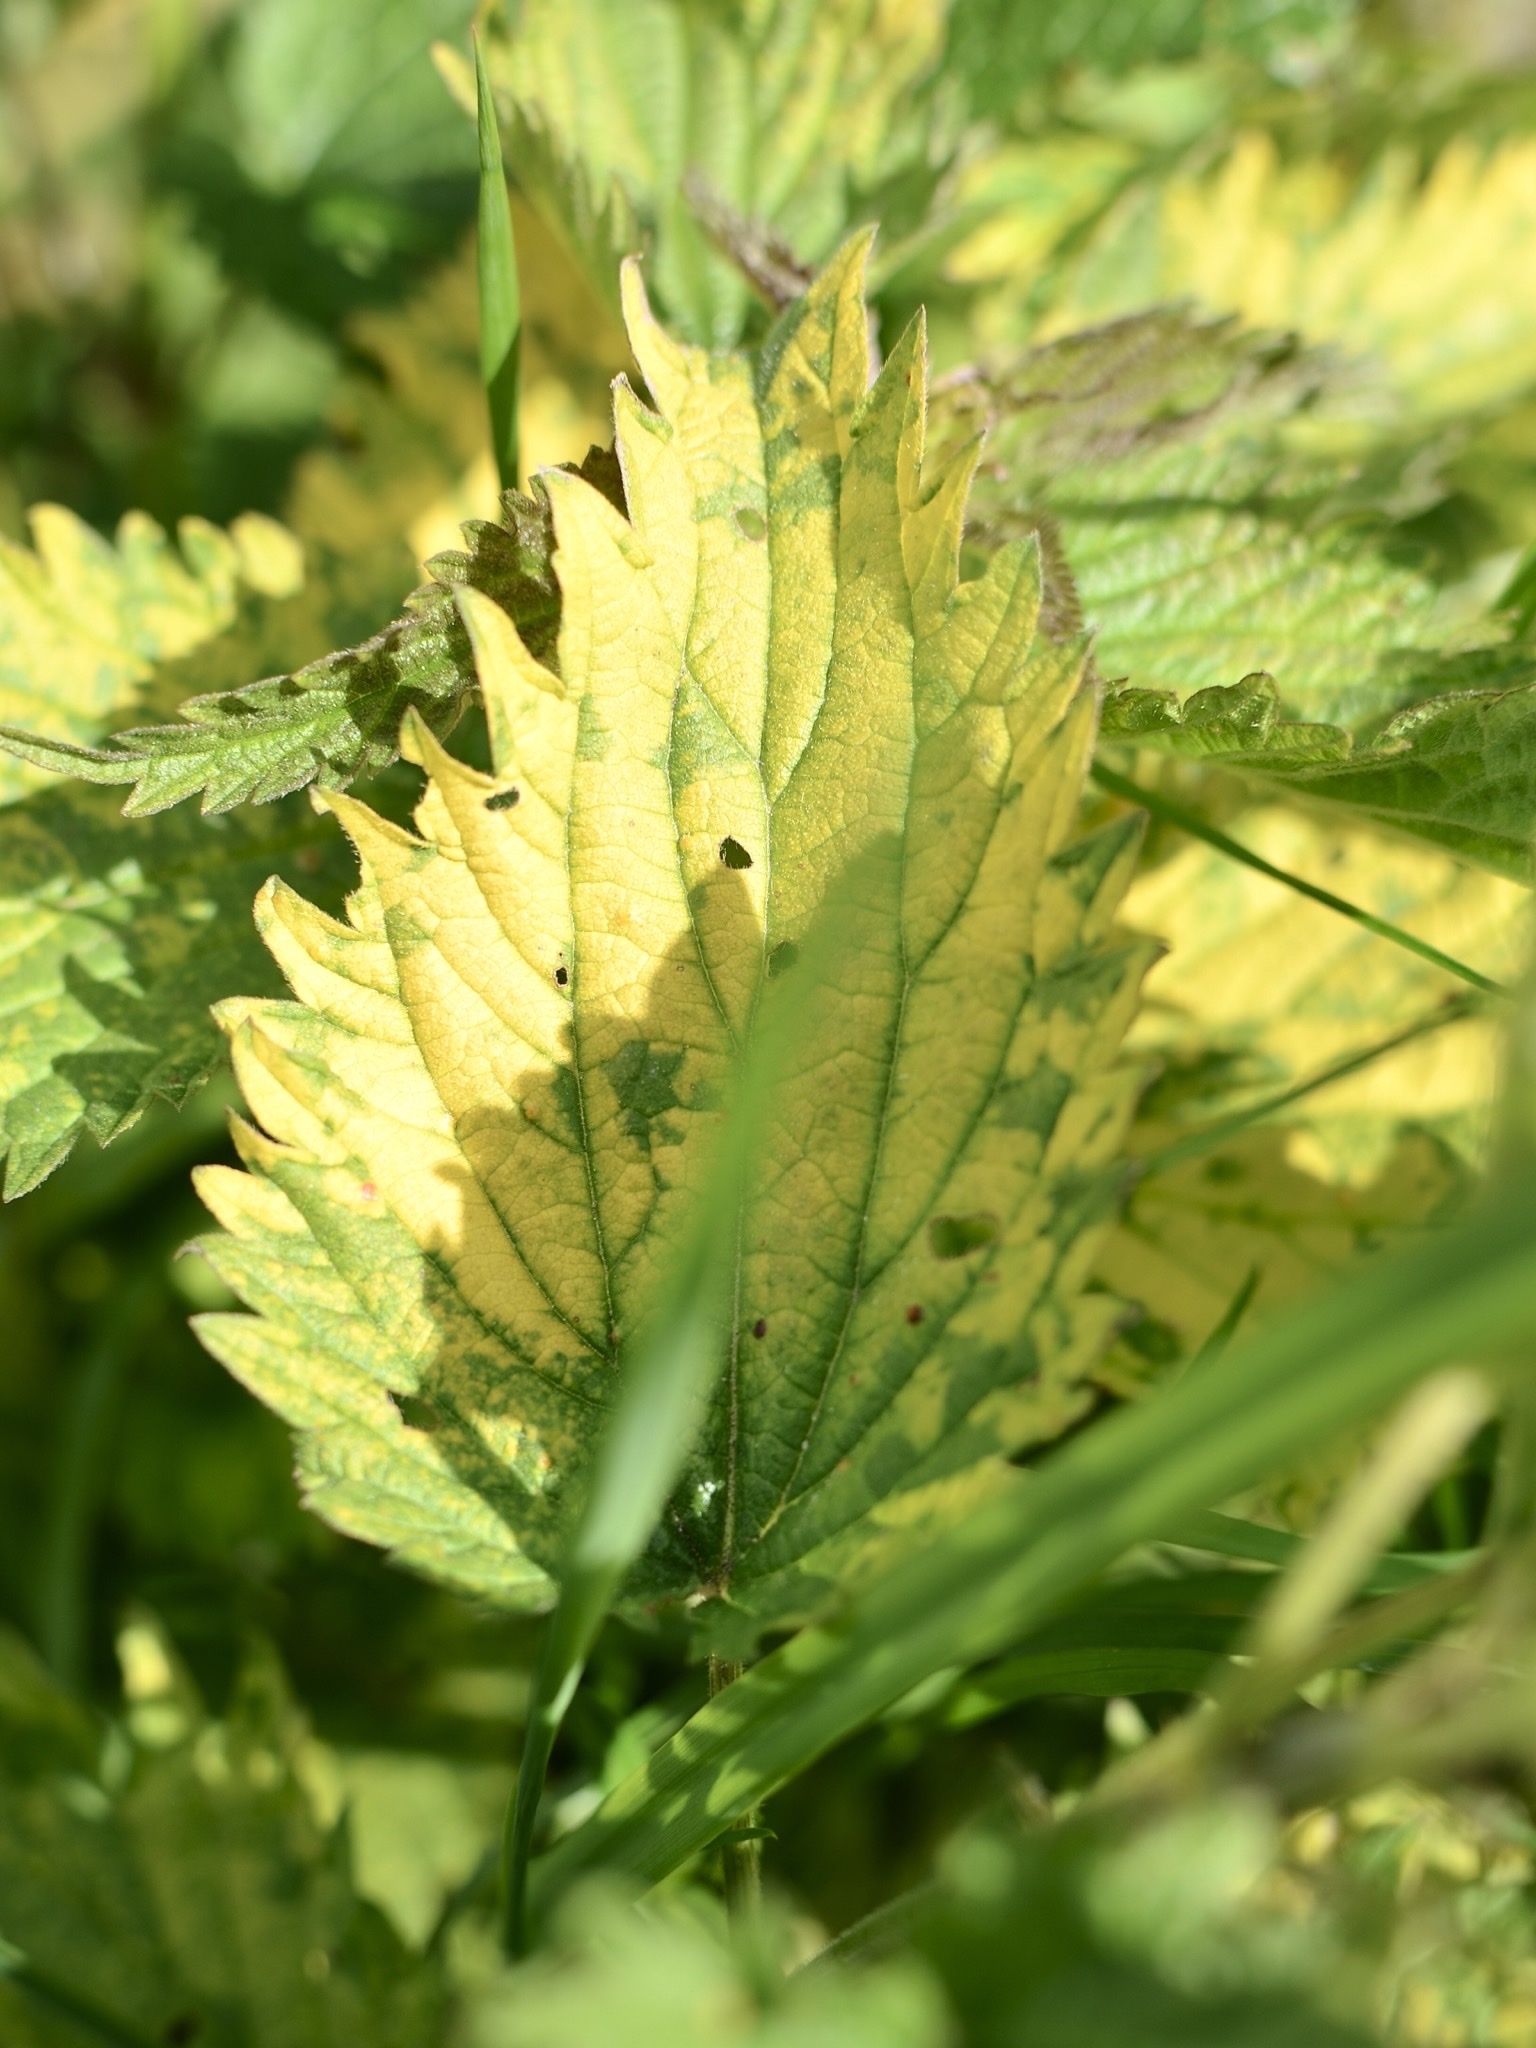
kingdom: Plantae
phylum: Tracheophyta
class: Magnoliopsida
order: Rosales
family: Urticaceae
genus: Urtica
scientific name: Urtica dioica
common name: Common nettle
